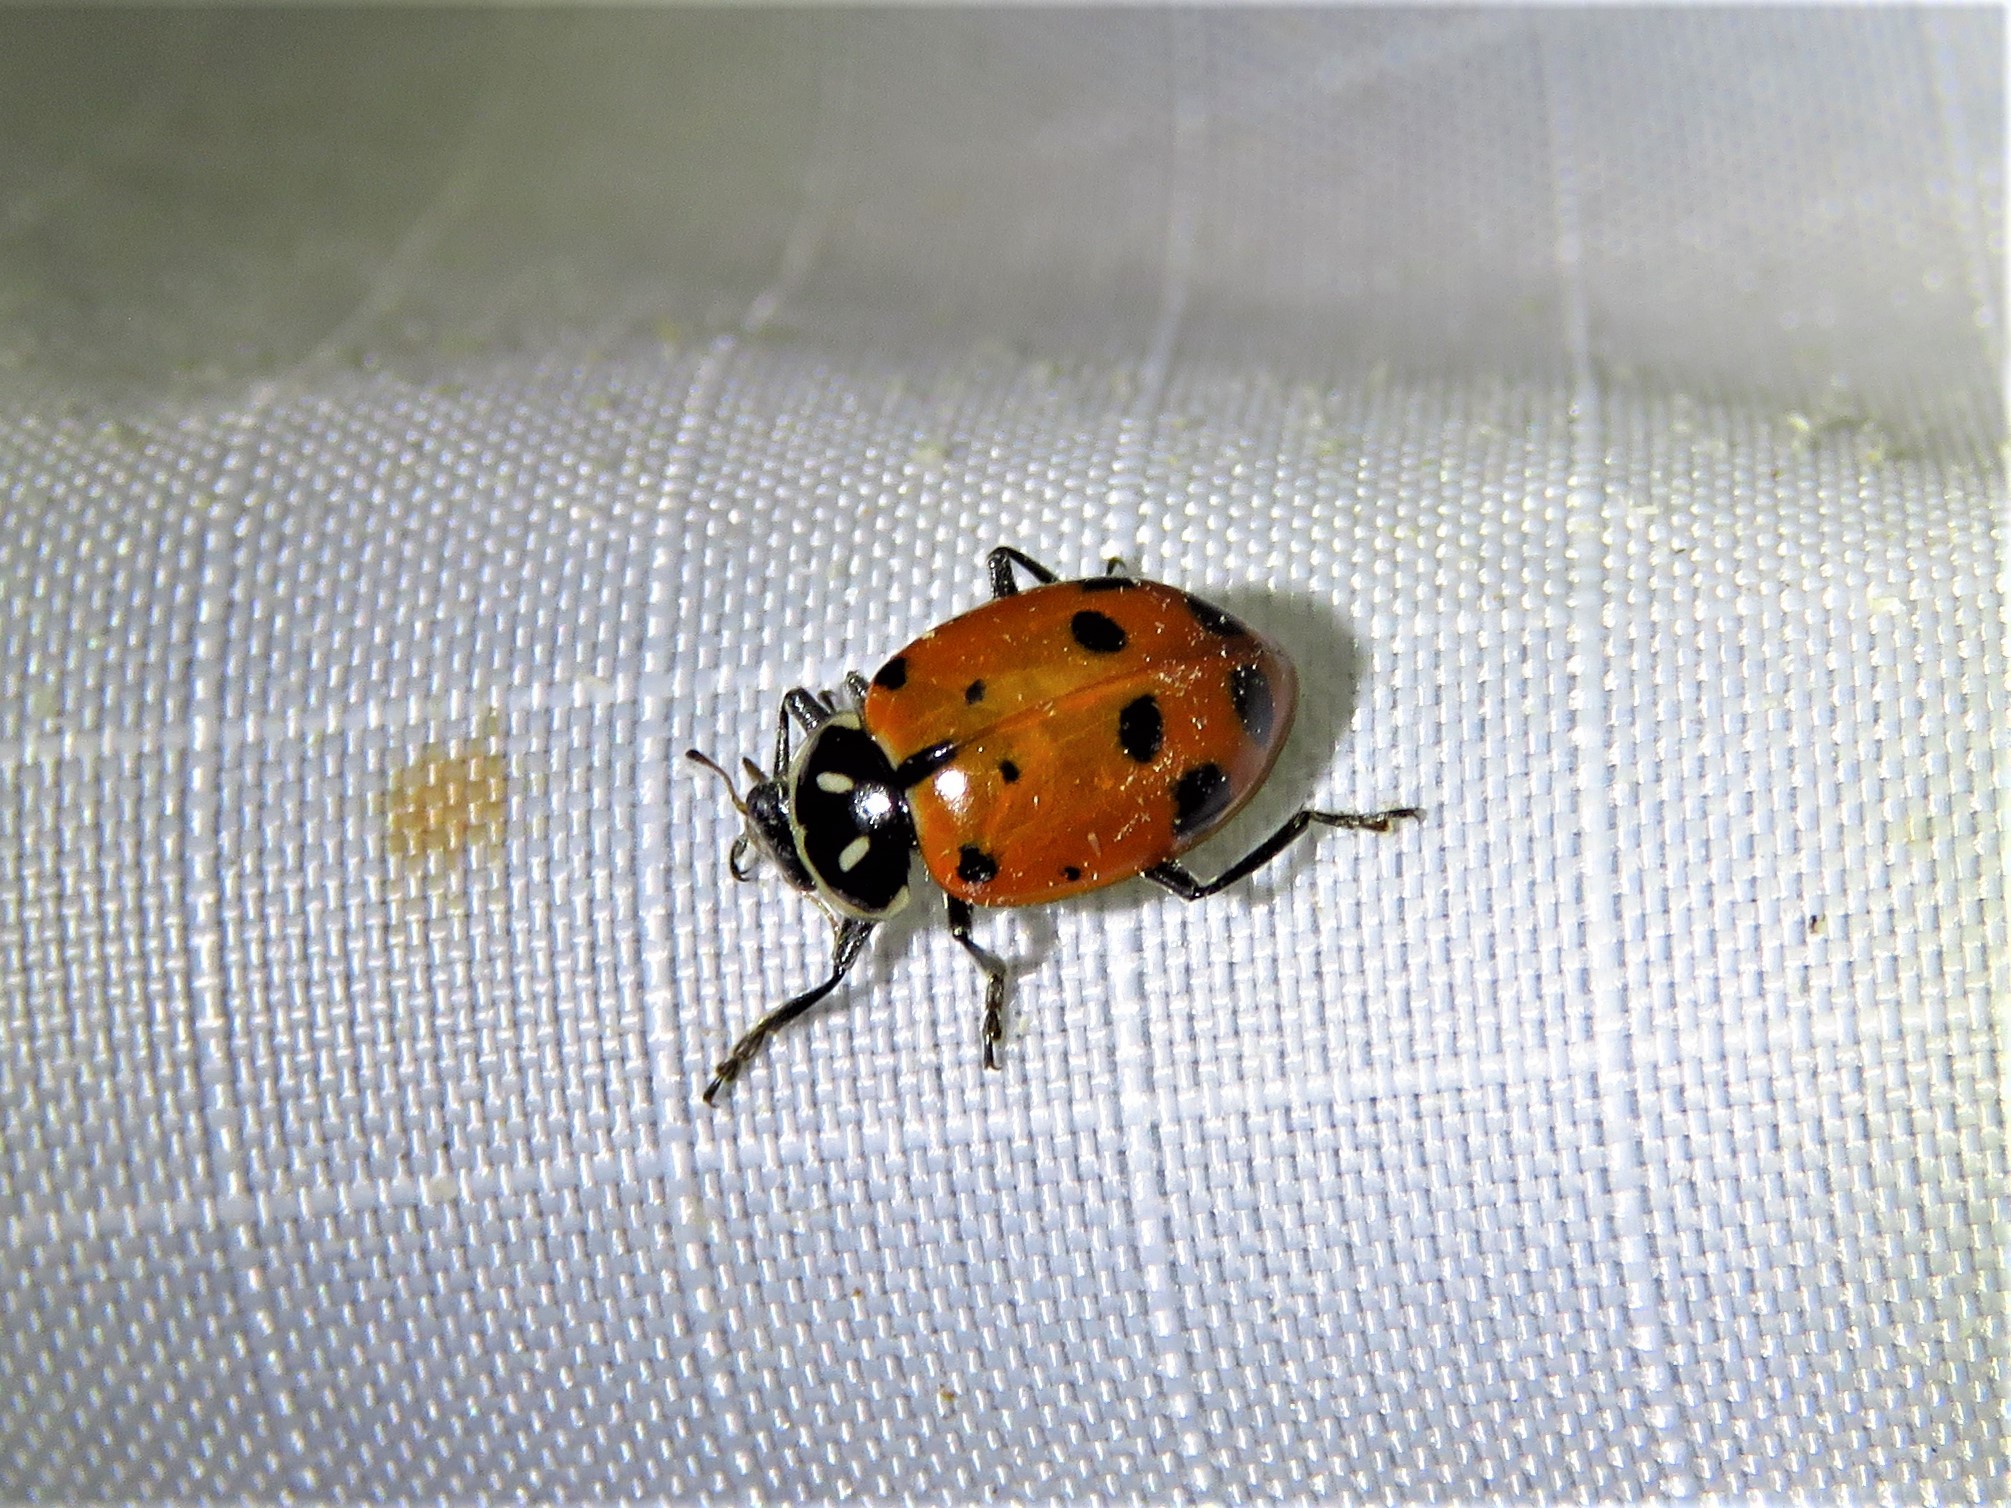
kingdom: Animalia
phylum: Arthropoda
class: Insecta
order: Coleoptera
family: Coccinellidae
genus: Hippodamia
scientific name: Hippodamia convergens
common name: Convergent lady beetle
